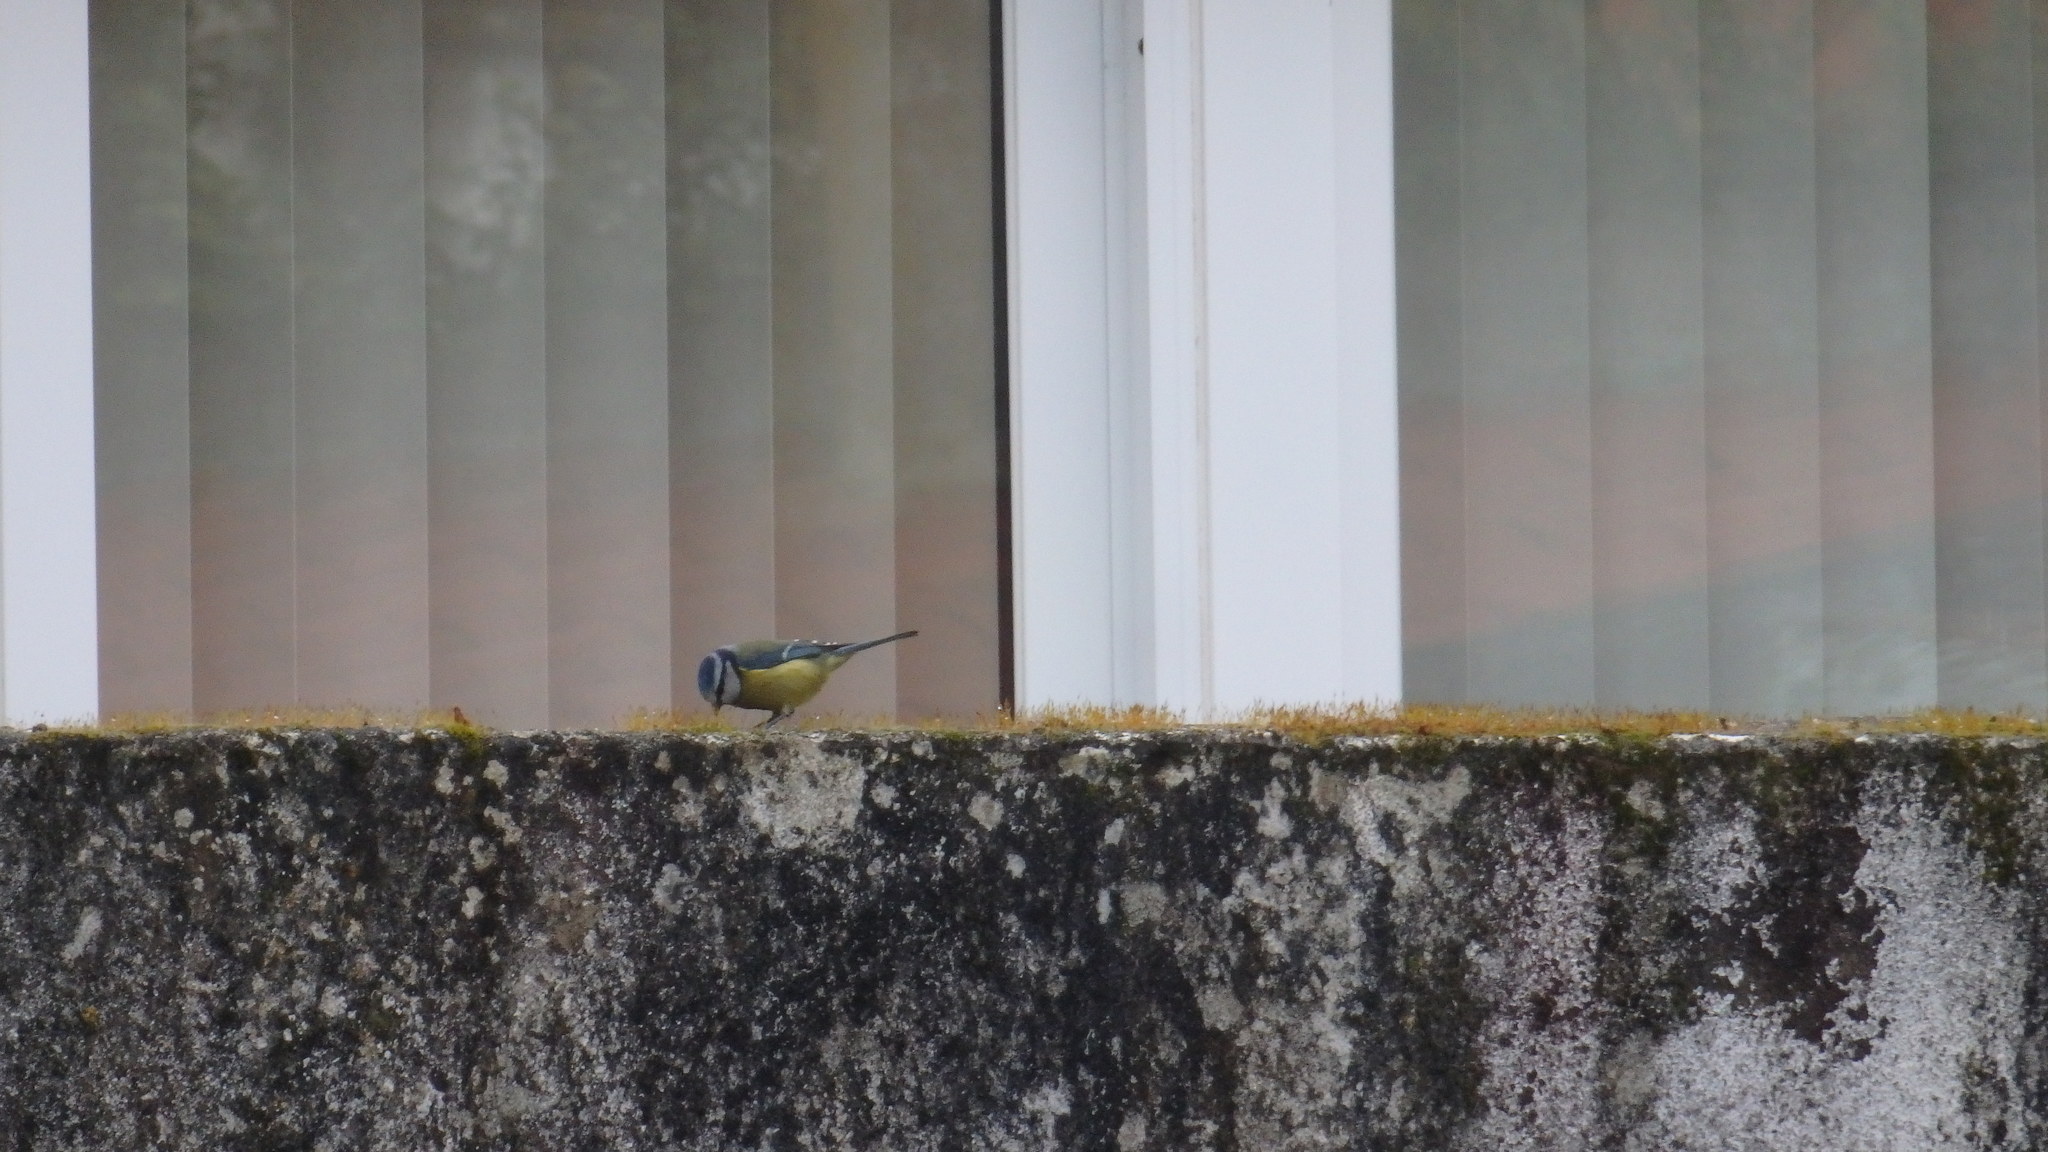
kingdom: Animalia
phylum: Chordata
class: Aves
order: Passeriformes
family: Paridae
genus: Cyanistes
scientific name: Cyanistes caeruleus
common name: Eurasian blue tit
